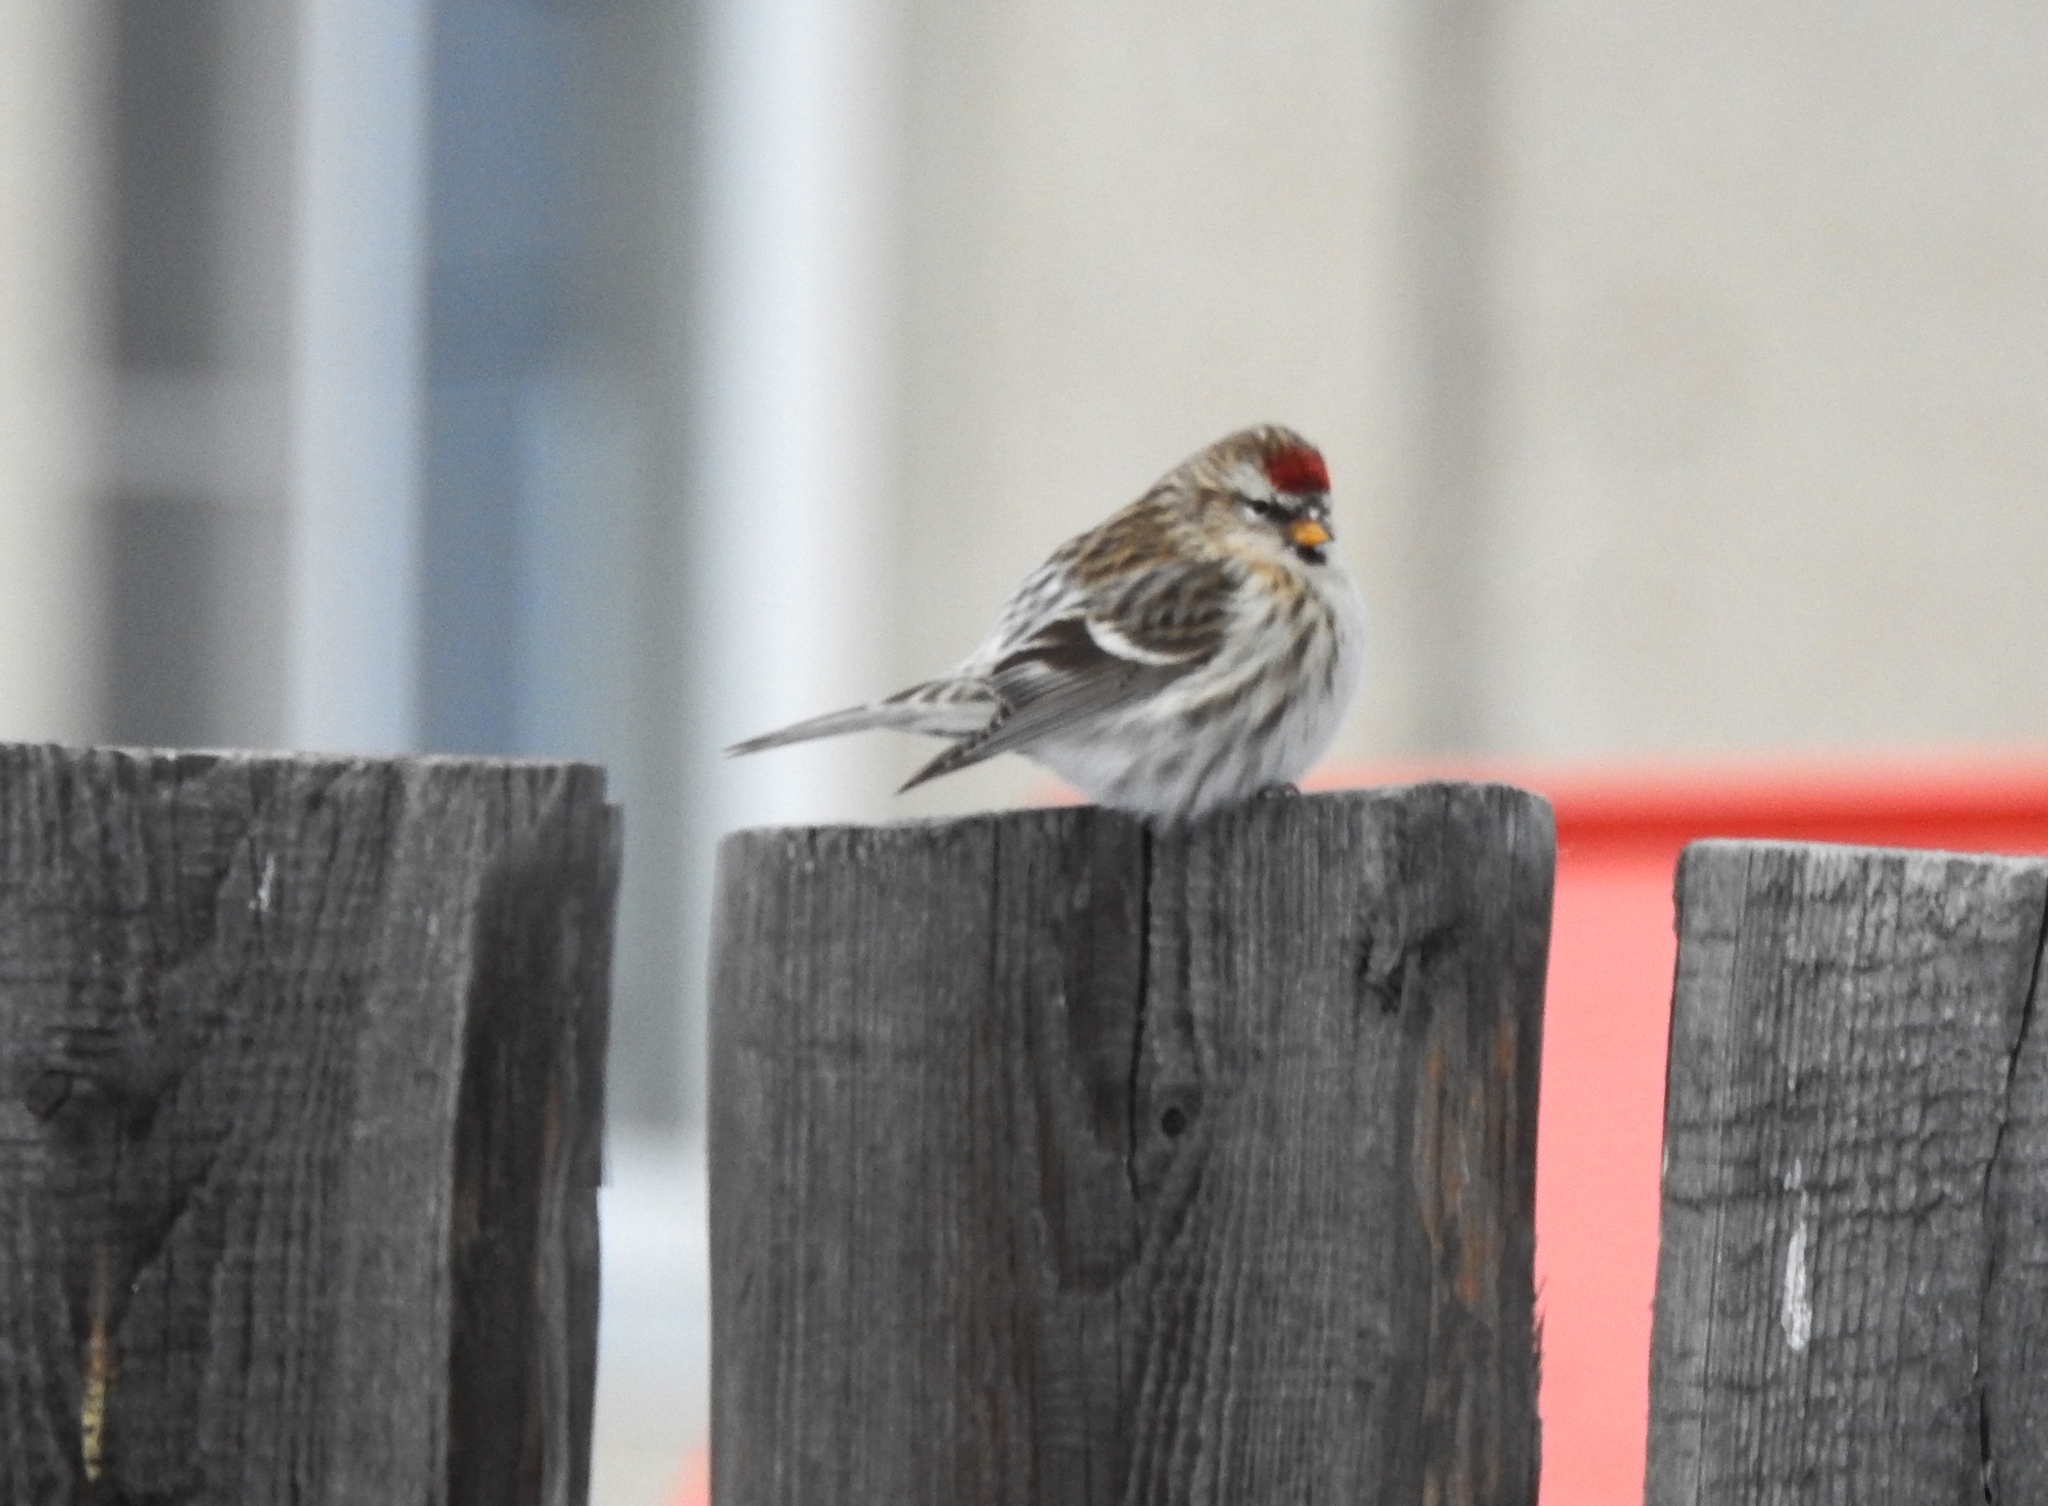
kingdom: Animalia
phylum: Chordata
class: Aves
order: Passeriformes
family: Fringillidae
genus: Acanthis
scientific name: Acanthis flammea
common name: Common redpoll
